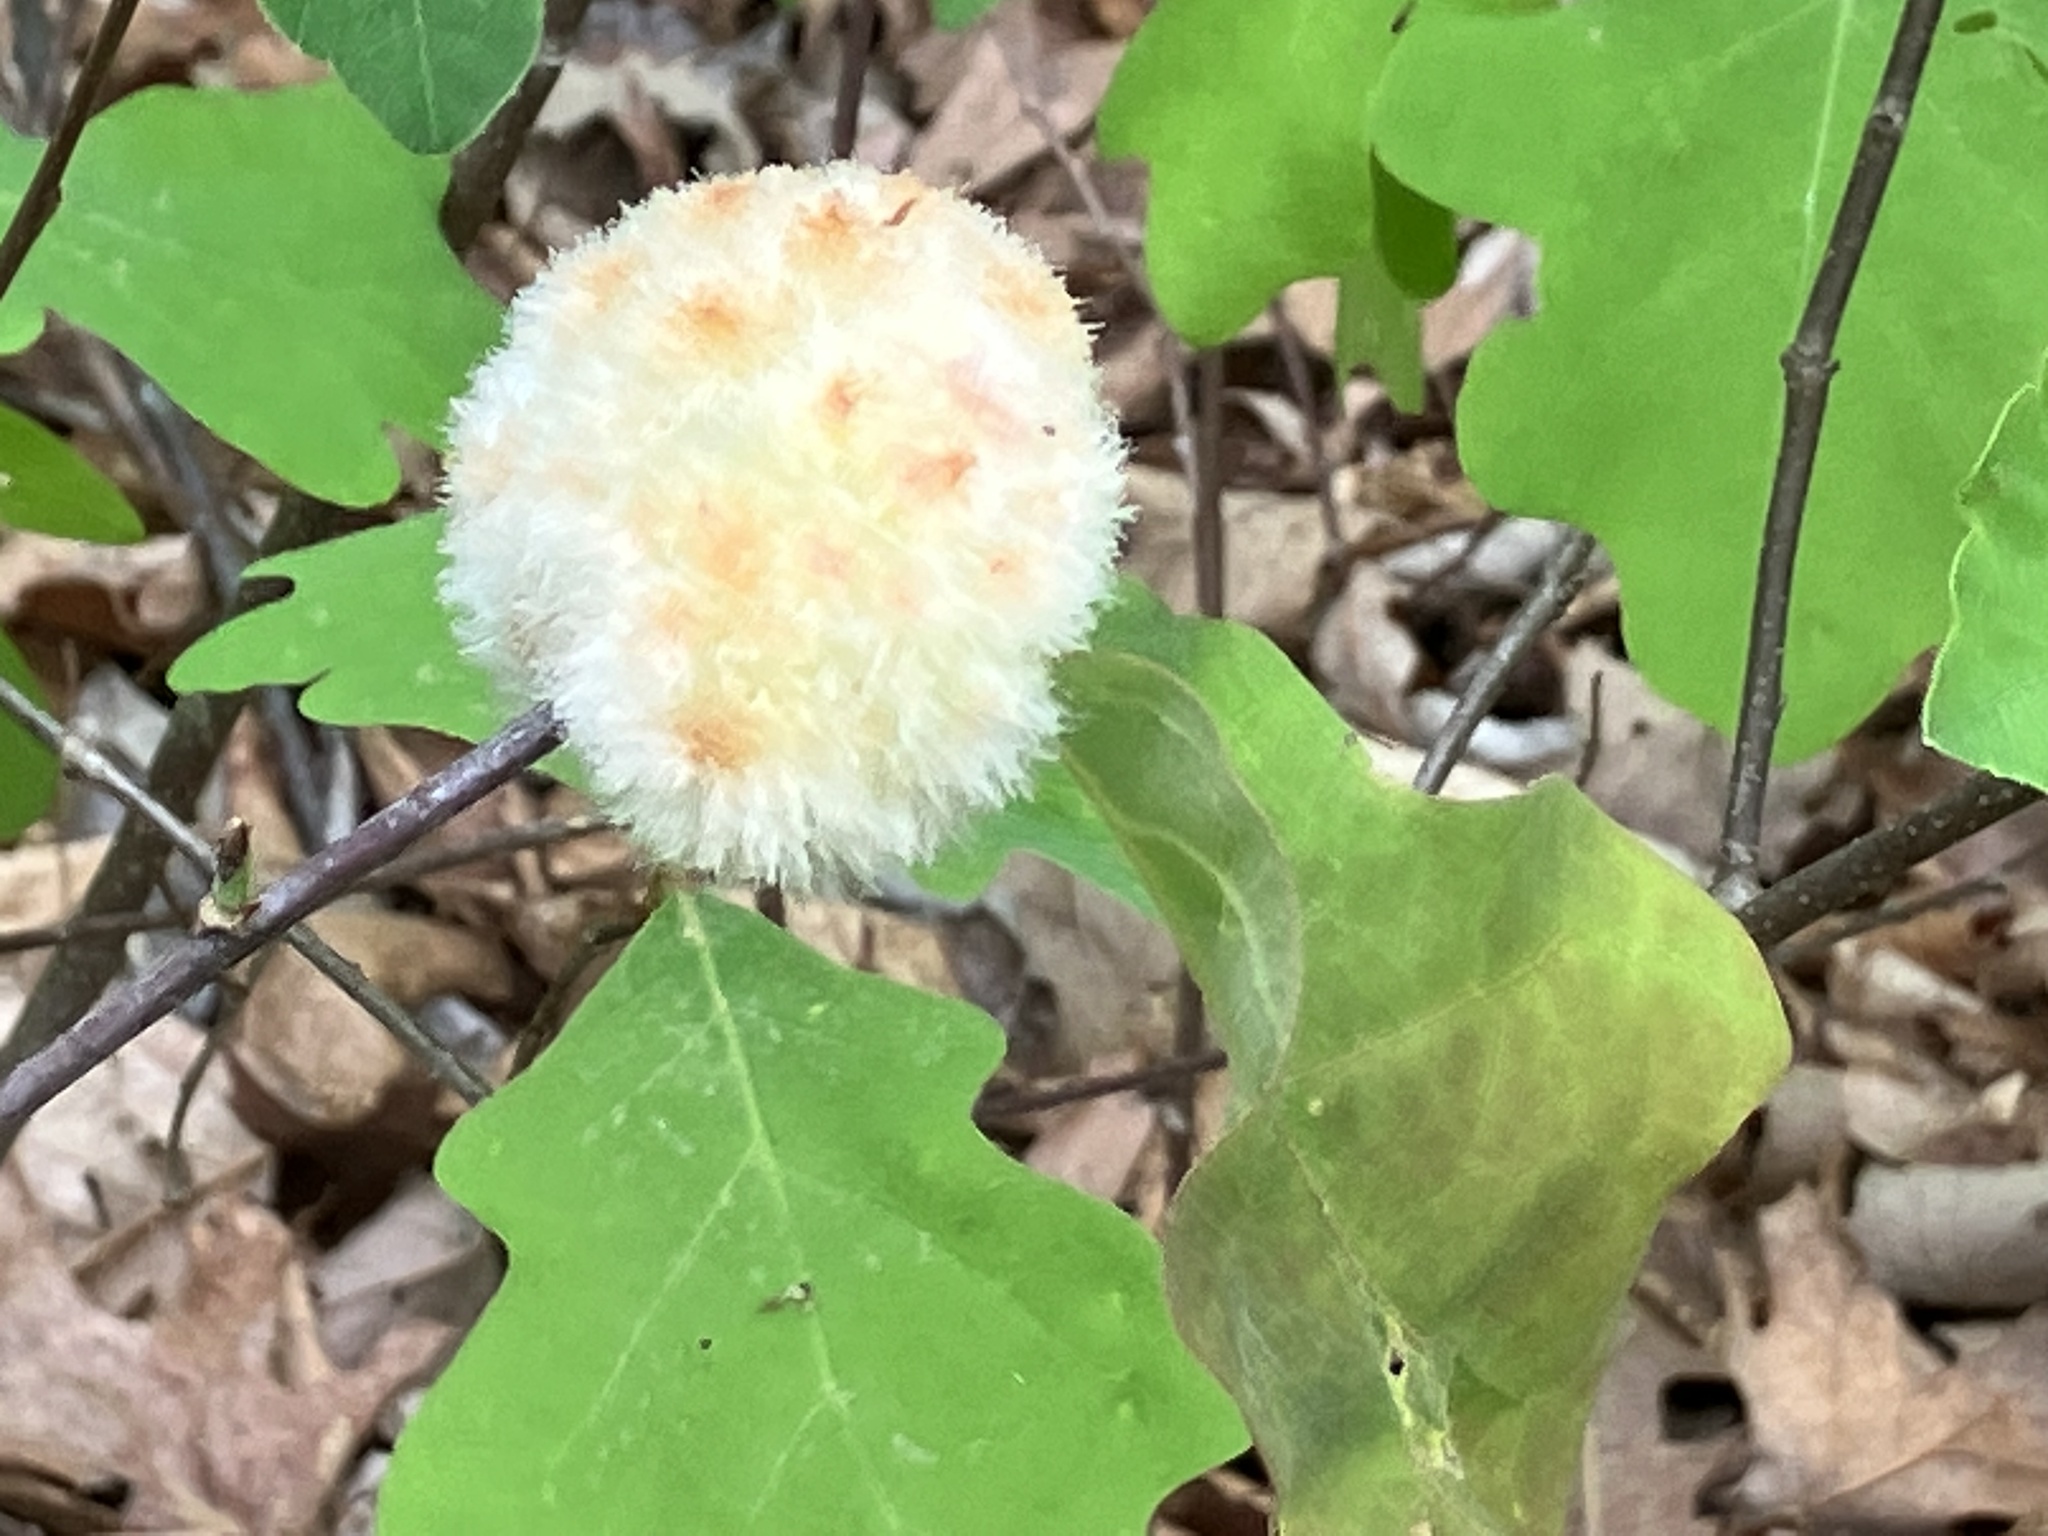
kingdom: Animalia
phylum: Arthropoda
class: Insecta
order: Hymenoptera
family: Cynipidae
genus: Callirhytis
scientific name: Callirhytis
